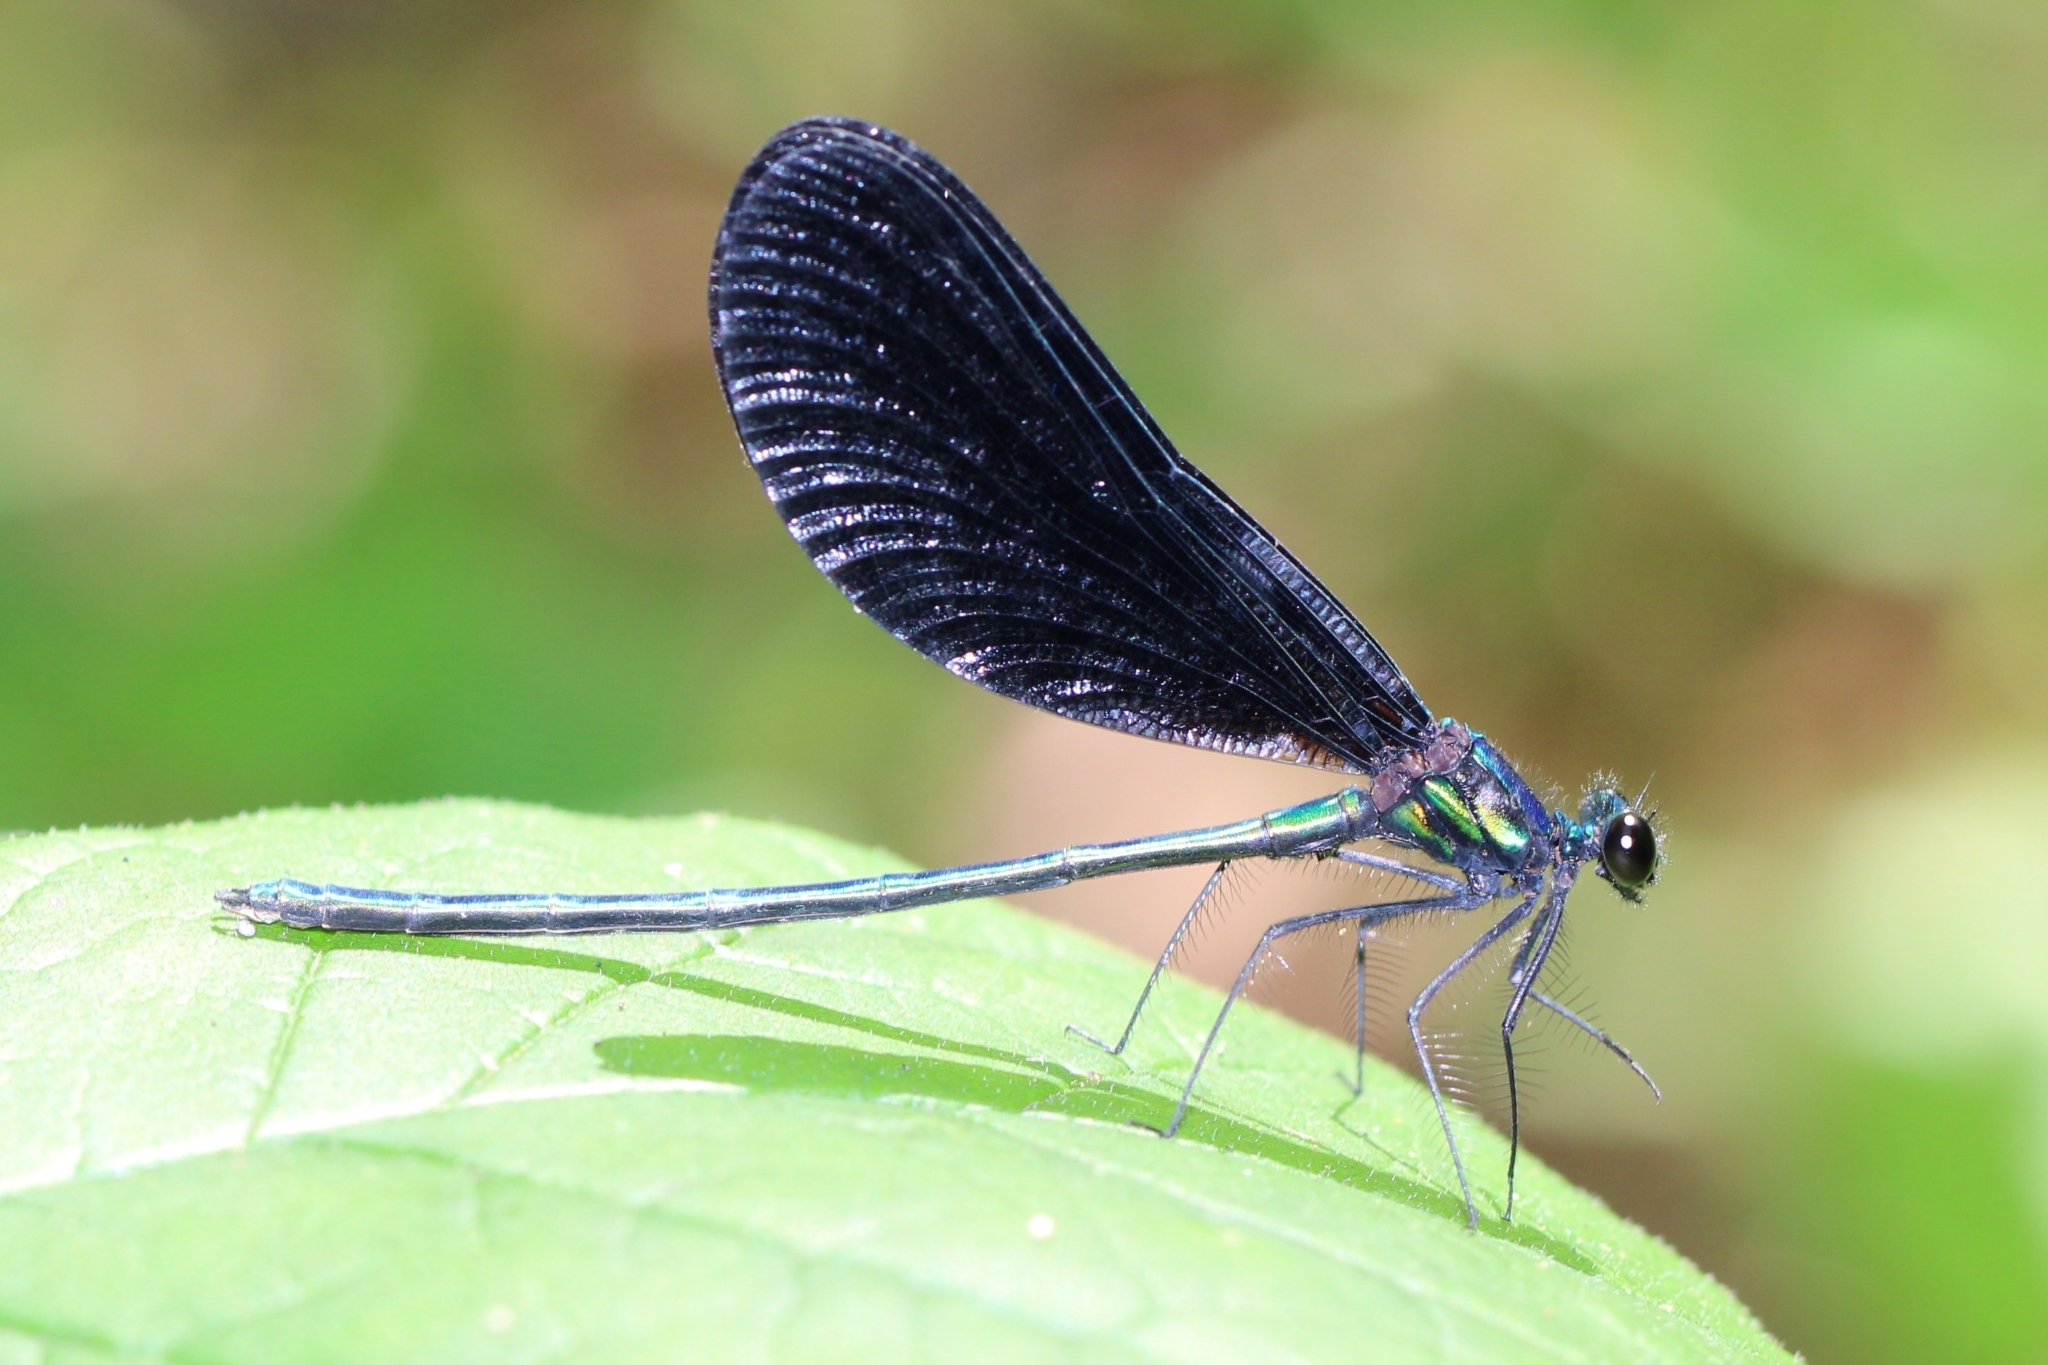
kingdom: Animalia
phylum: Arthropoda
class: Insecta
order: Odonata
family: Calopterygidae
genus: Calopteryx
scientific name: Calopteryx maculata
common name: Ebony jewelwing
